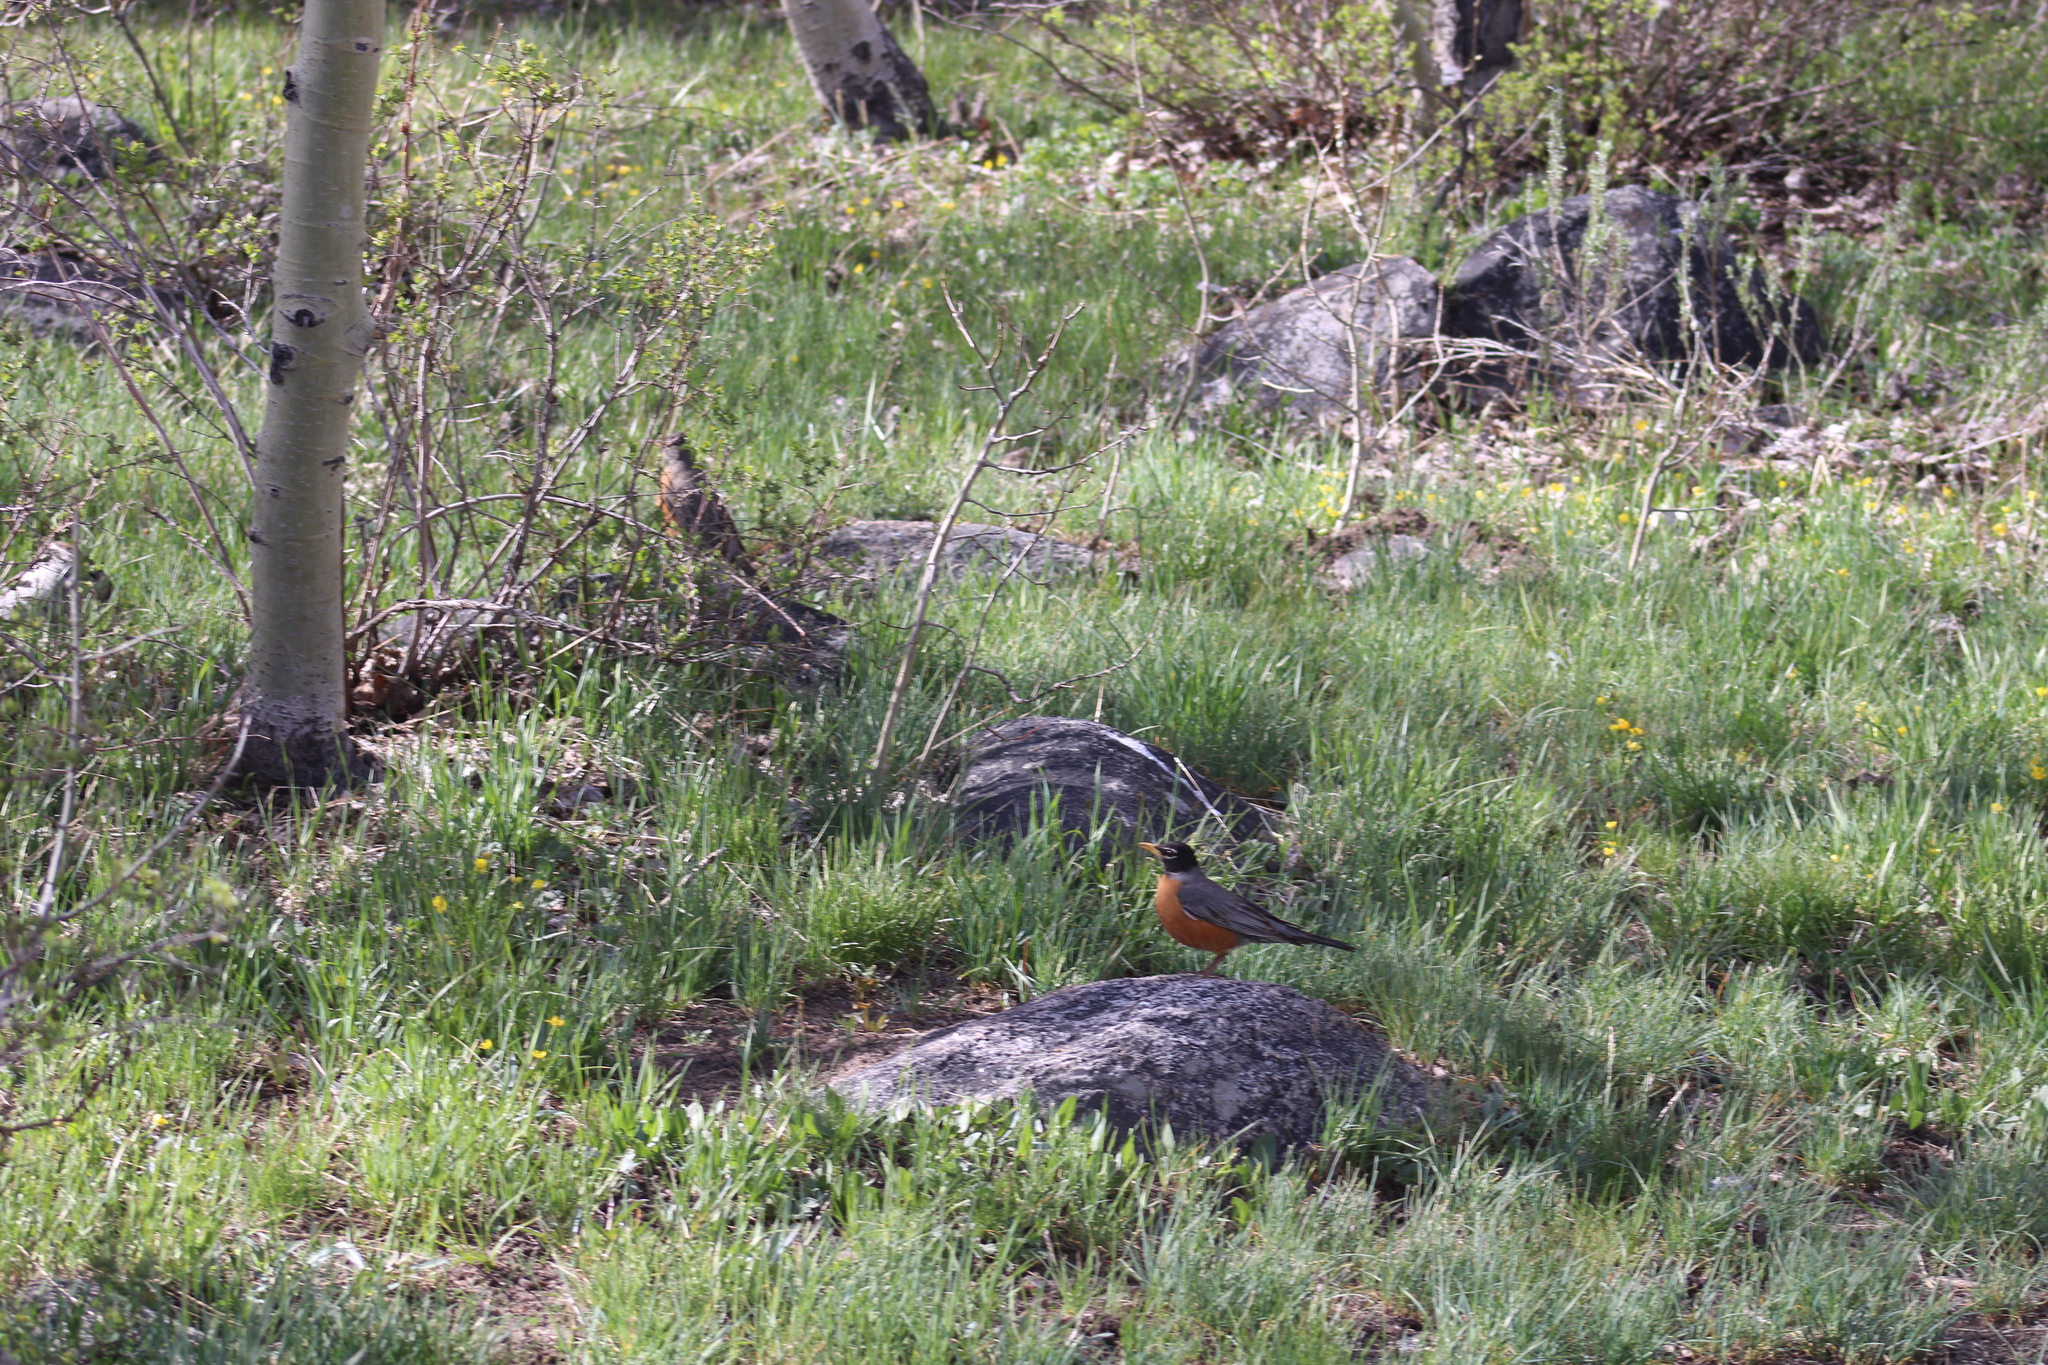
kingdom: Animalia
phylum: Chordata
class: Aves
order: Passeriformes
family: Turdidae
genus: Turdus
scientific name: Turdus migratorius
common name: American robin
